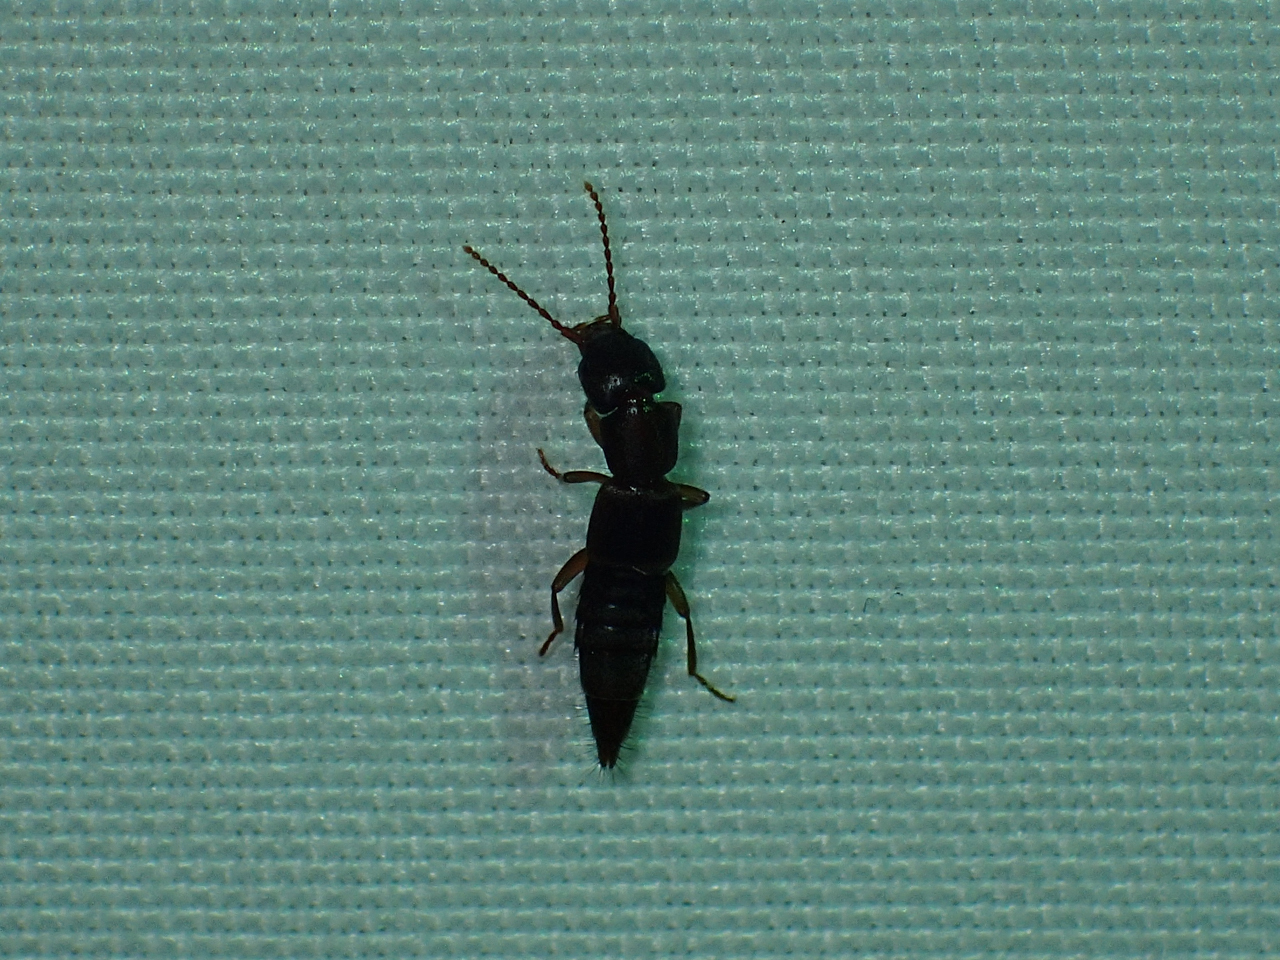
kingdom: Animalia
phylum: Arthropoda
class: Insecta
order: Coleoptera
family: Staphylinidae
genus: Achenomorphus
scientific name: Achenomorphus corticinus
